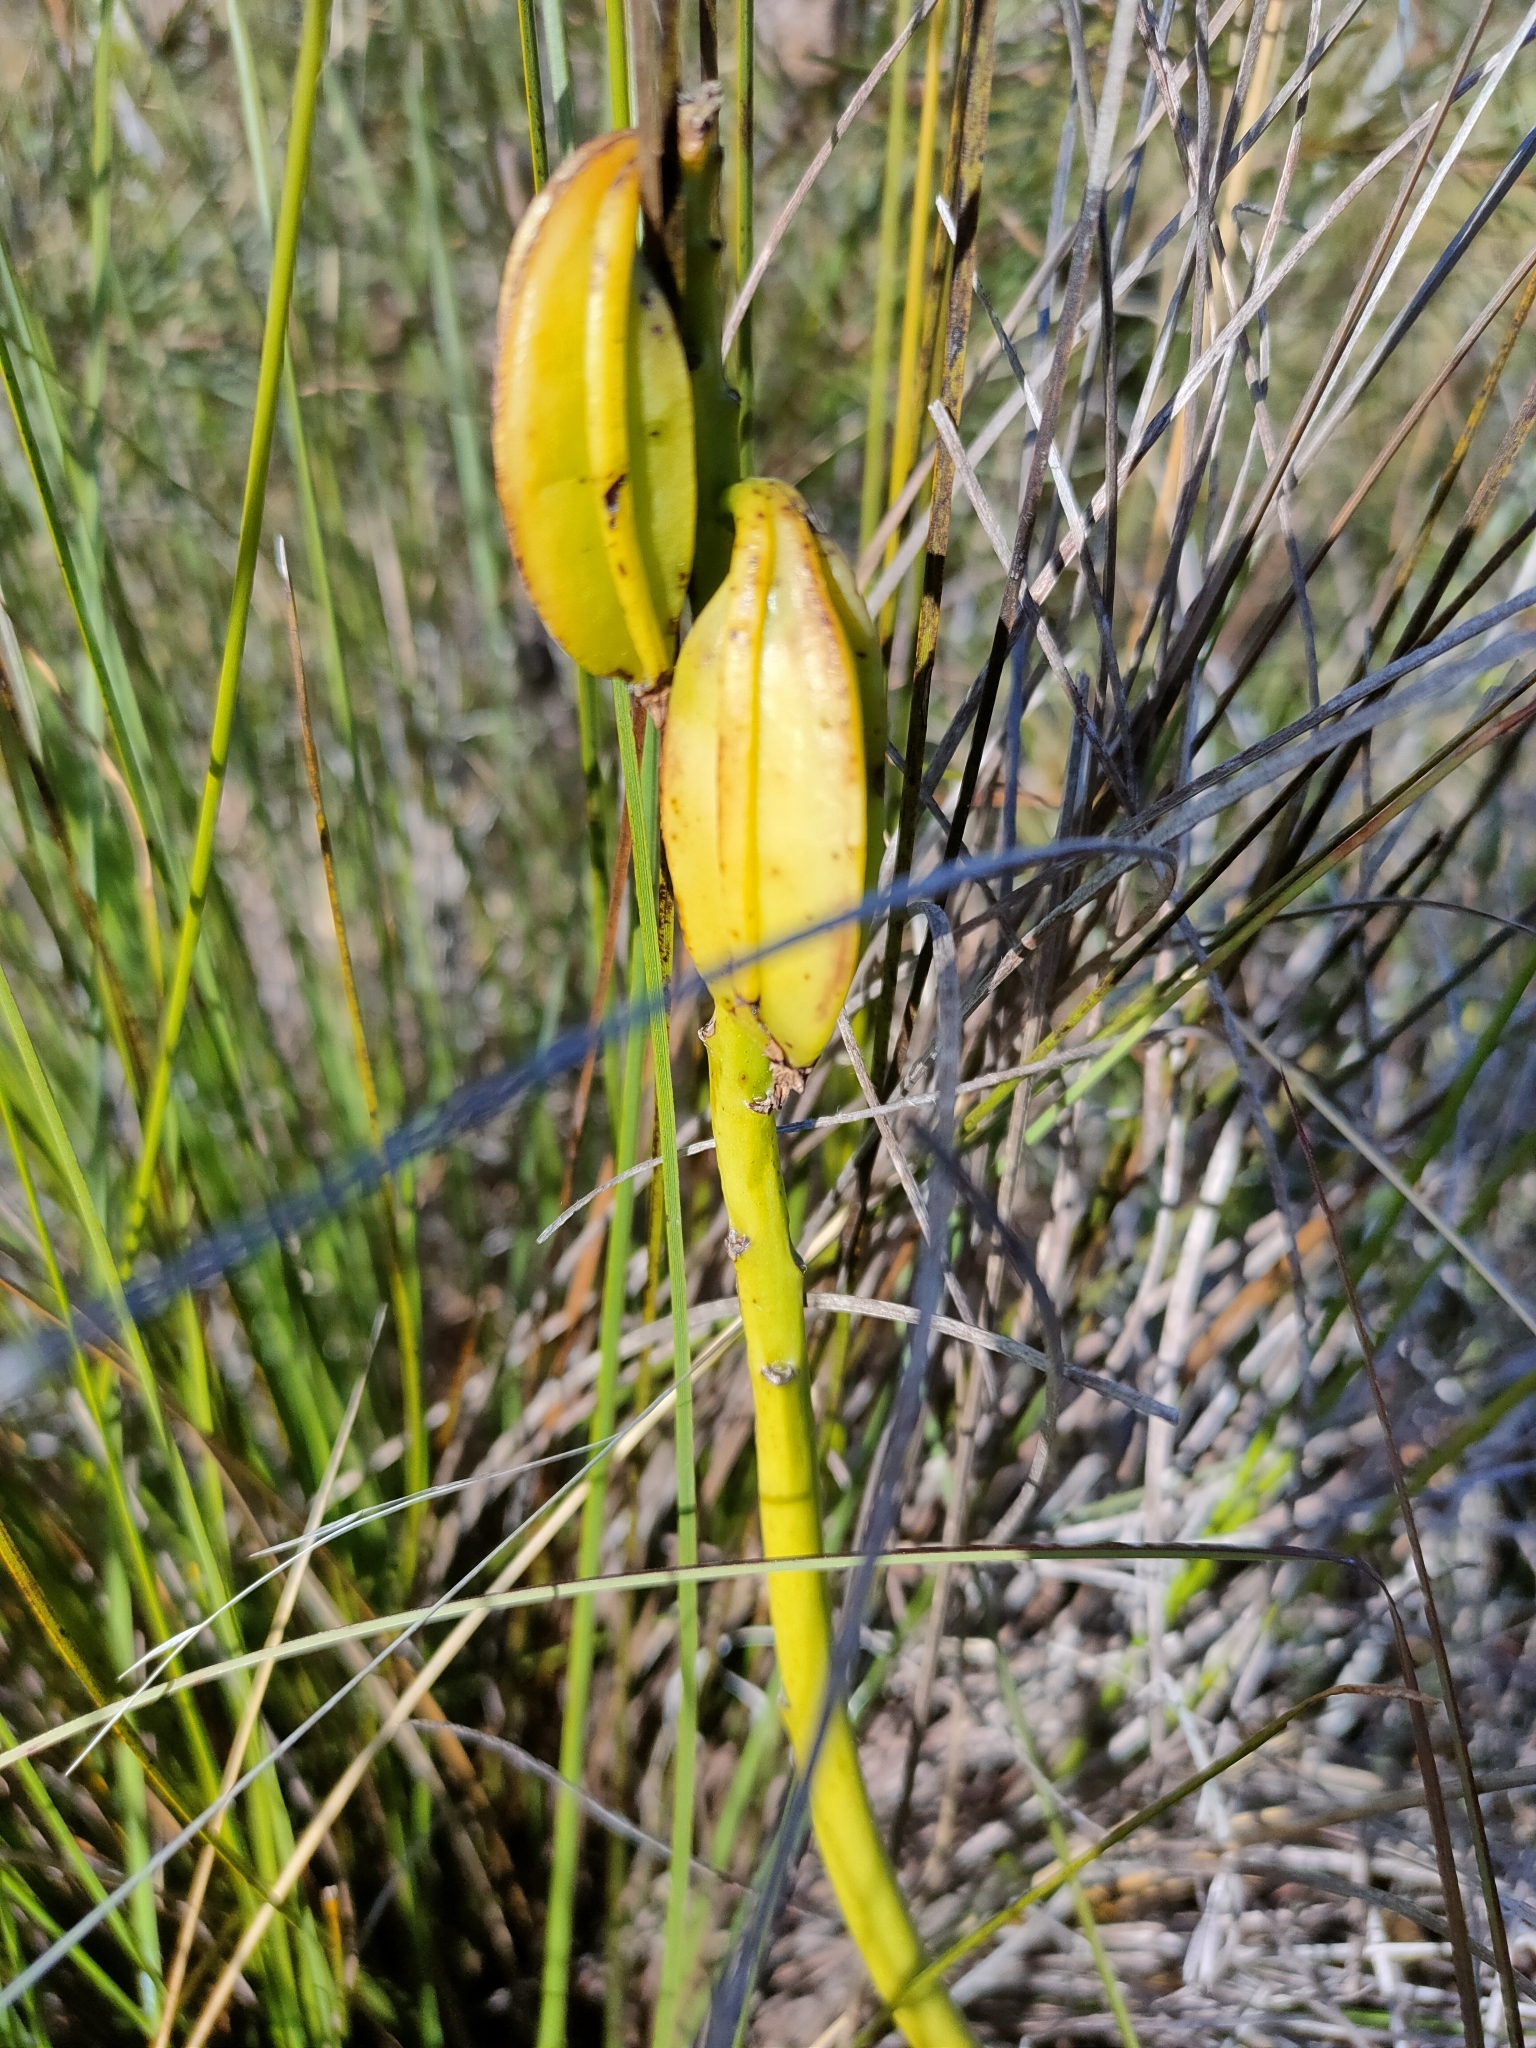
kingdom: Plantae
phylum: Tracheophyta
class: Liliopsida
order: Asparagales
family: Orchidaceae
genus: Eulophia
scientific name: Eulophia cernua
